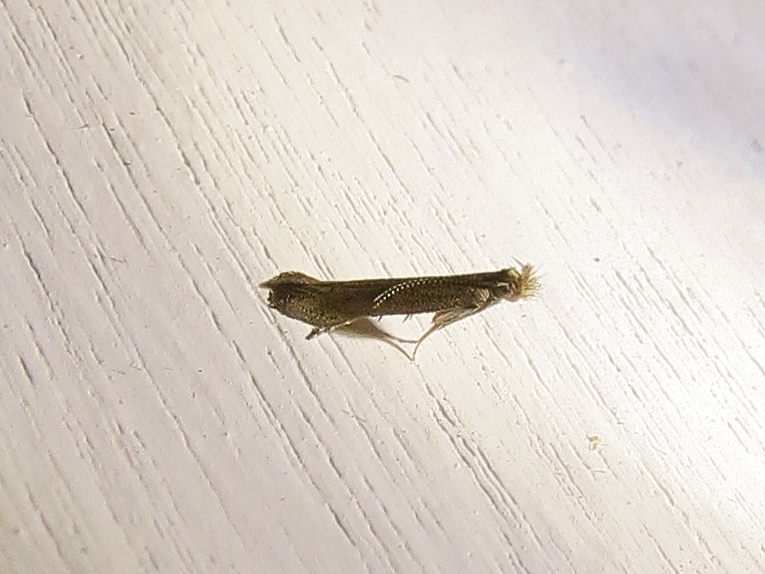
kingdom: Animalia
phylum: Arthropoda
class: Insecta
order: Lepidoptera
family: Gelechiidae
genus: Isophrictis
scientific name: Isophrictis similiella
